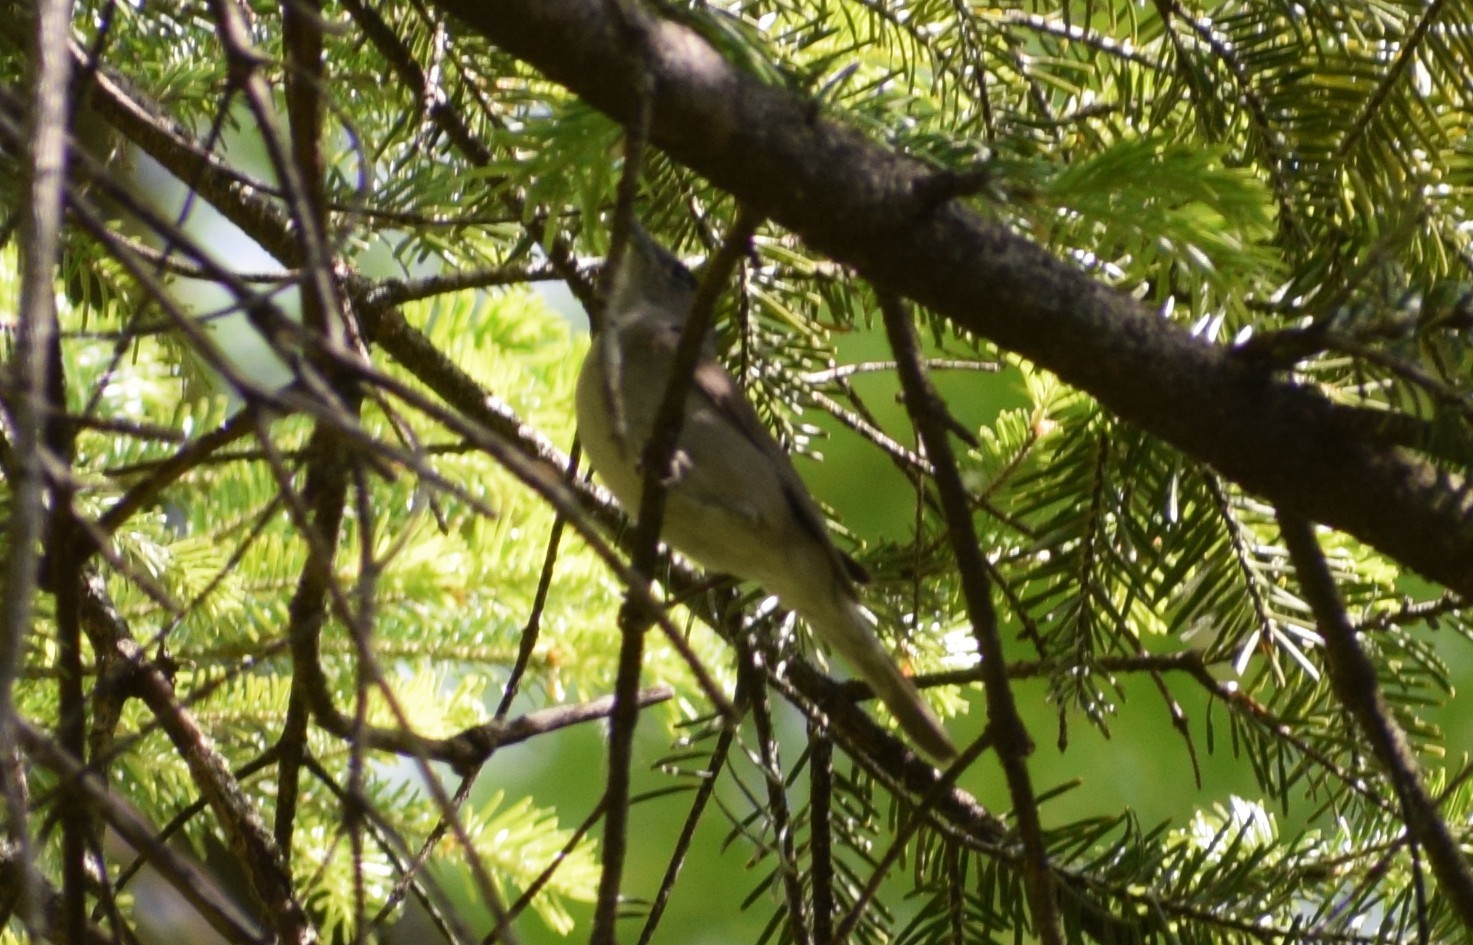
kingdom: Animalia
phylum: Chordata
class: Aves
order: Passeriformes
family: Sylviidae
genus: Sylvia
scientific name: Sylvia atricapilla
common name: Eurasian blackcap
